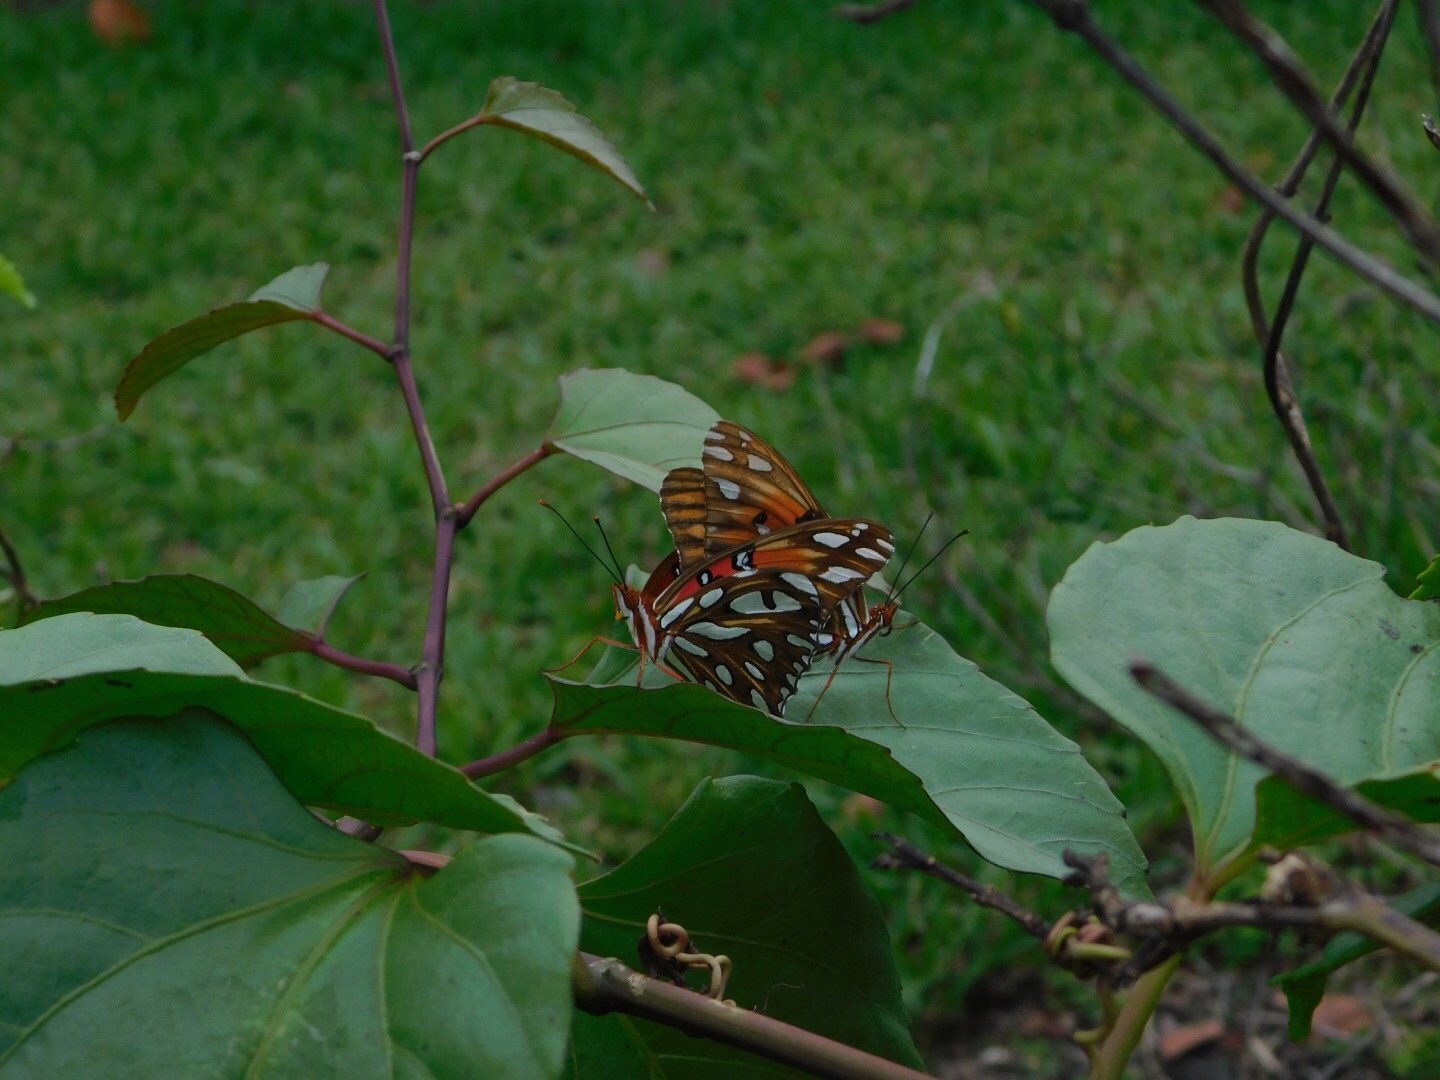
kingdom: Animalia
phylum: Arthropoda
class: Insecta
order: Lepidoptera
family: Nymphalidae
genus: Dione
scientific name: Dione vanillae
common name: Gulf fritillary
